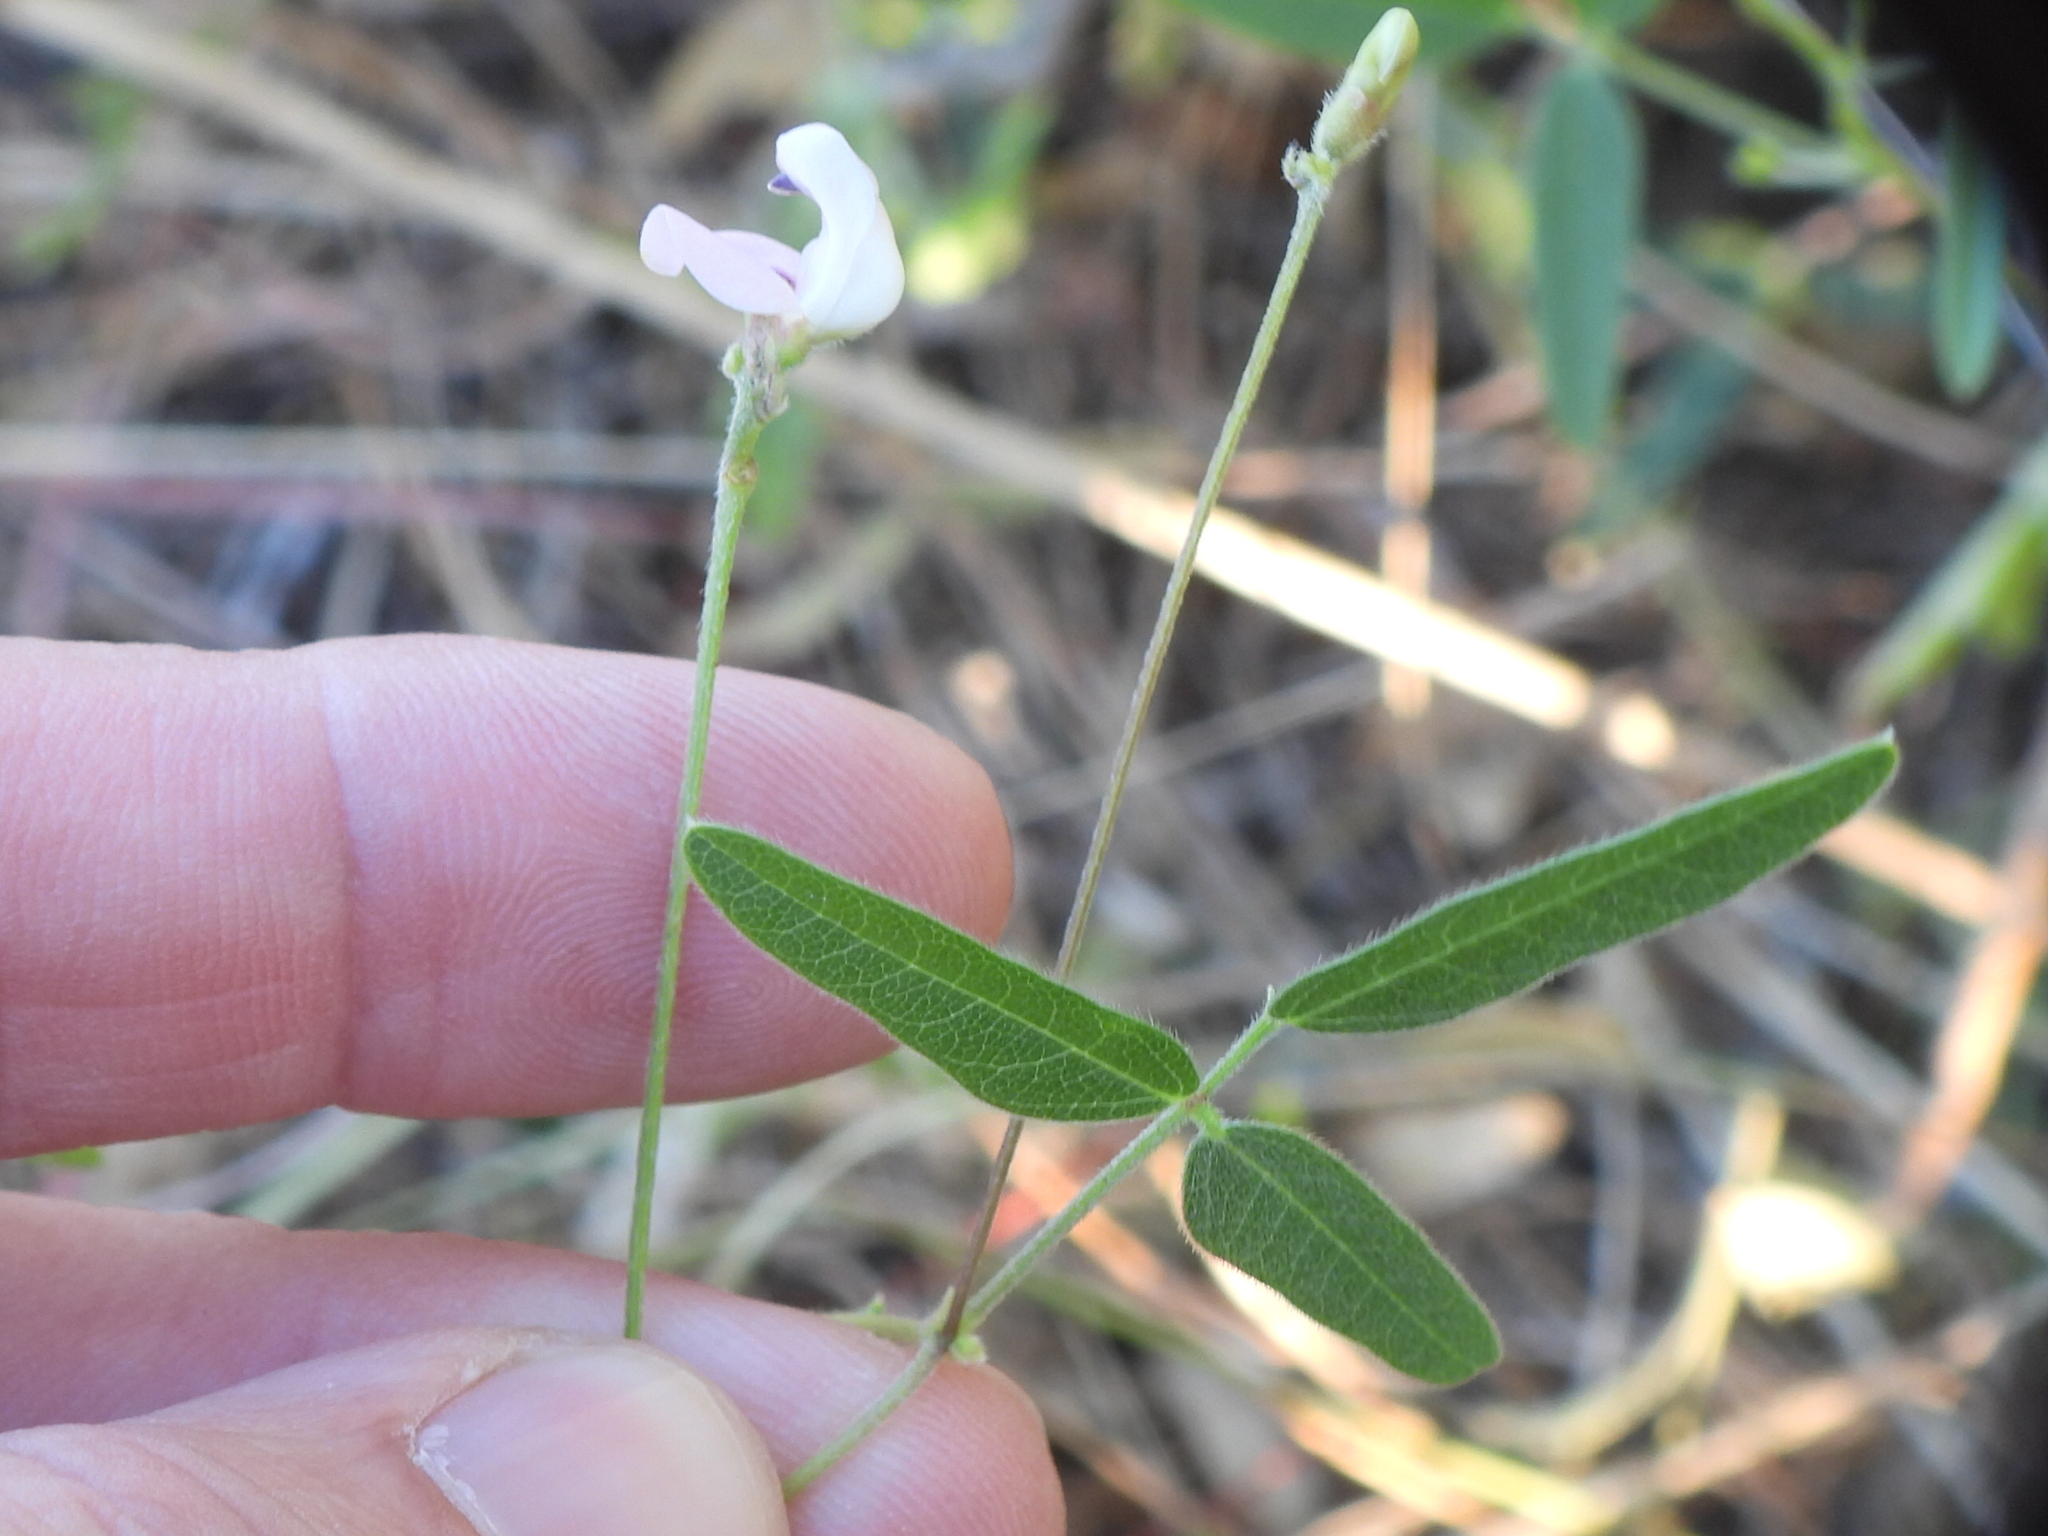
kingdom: Plantae
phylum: Tracheophyta
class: Magnoliopsida
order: Fabales
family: Fabaceae
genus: Strophostyles
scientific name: Strophostyles leiosperma
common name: Smooth-seed wild bean
